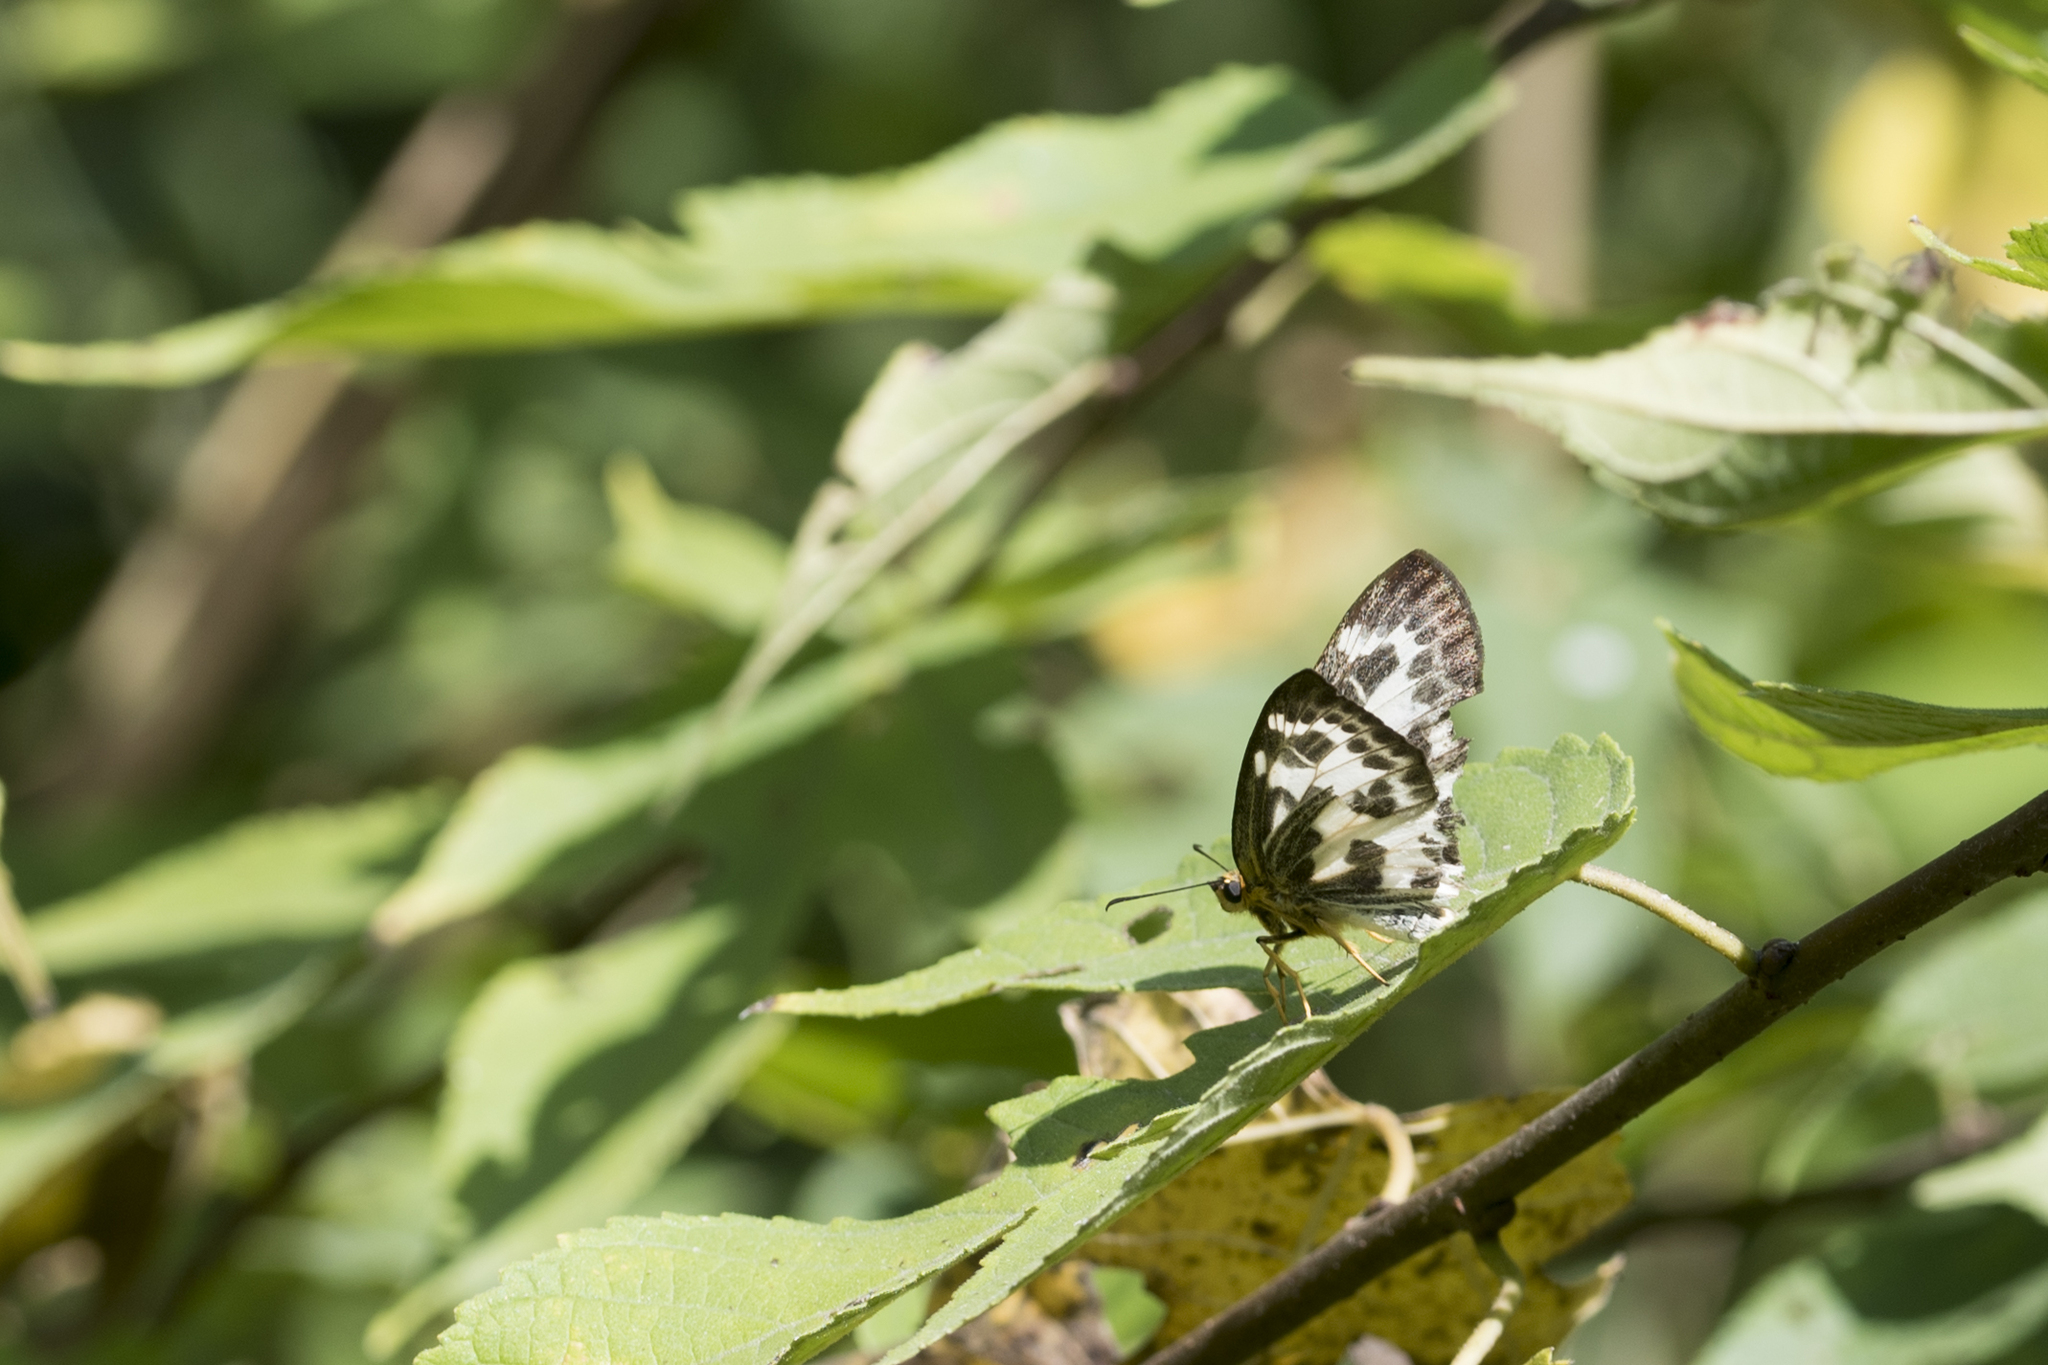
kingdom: Animalia
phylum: Arthropoda
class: Insecta
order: Lepidoptera
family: Hesperiidae
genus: Abraximorpha
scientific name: Abraximorpha davidii
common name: Magpie flat
